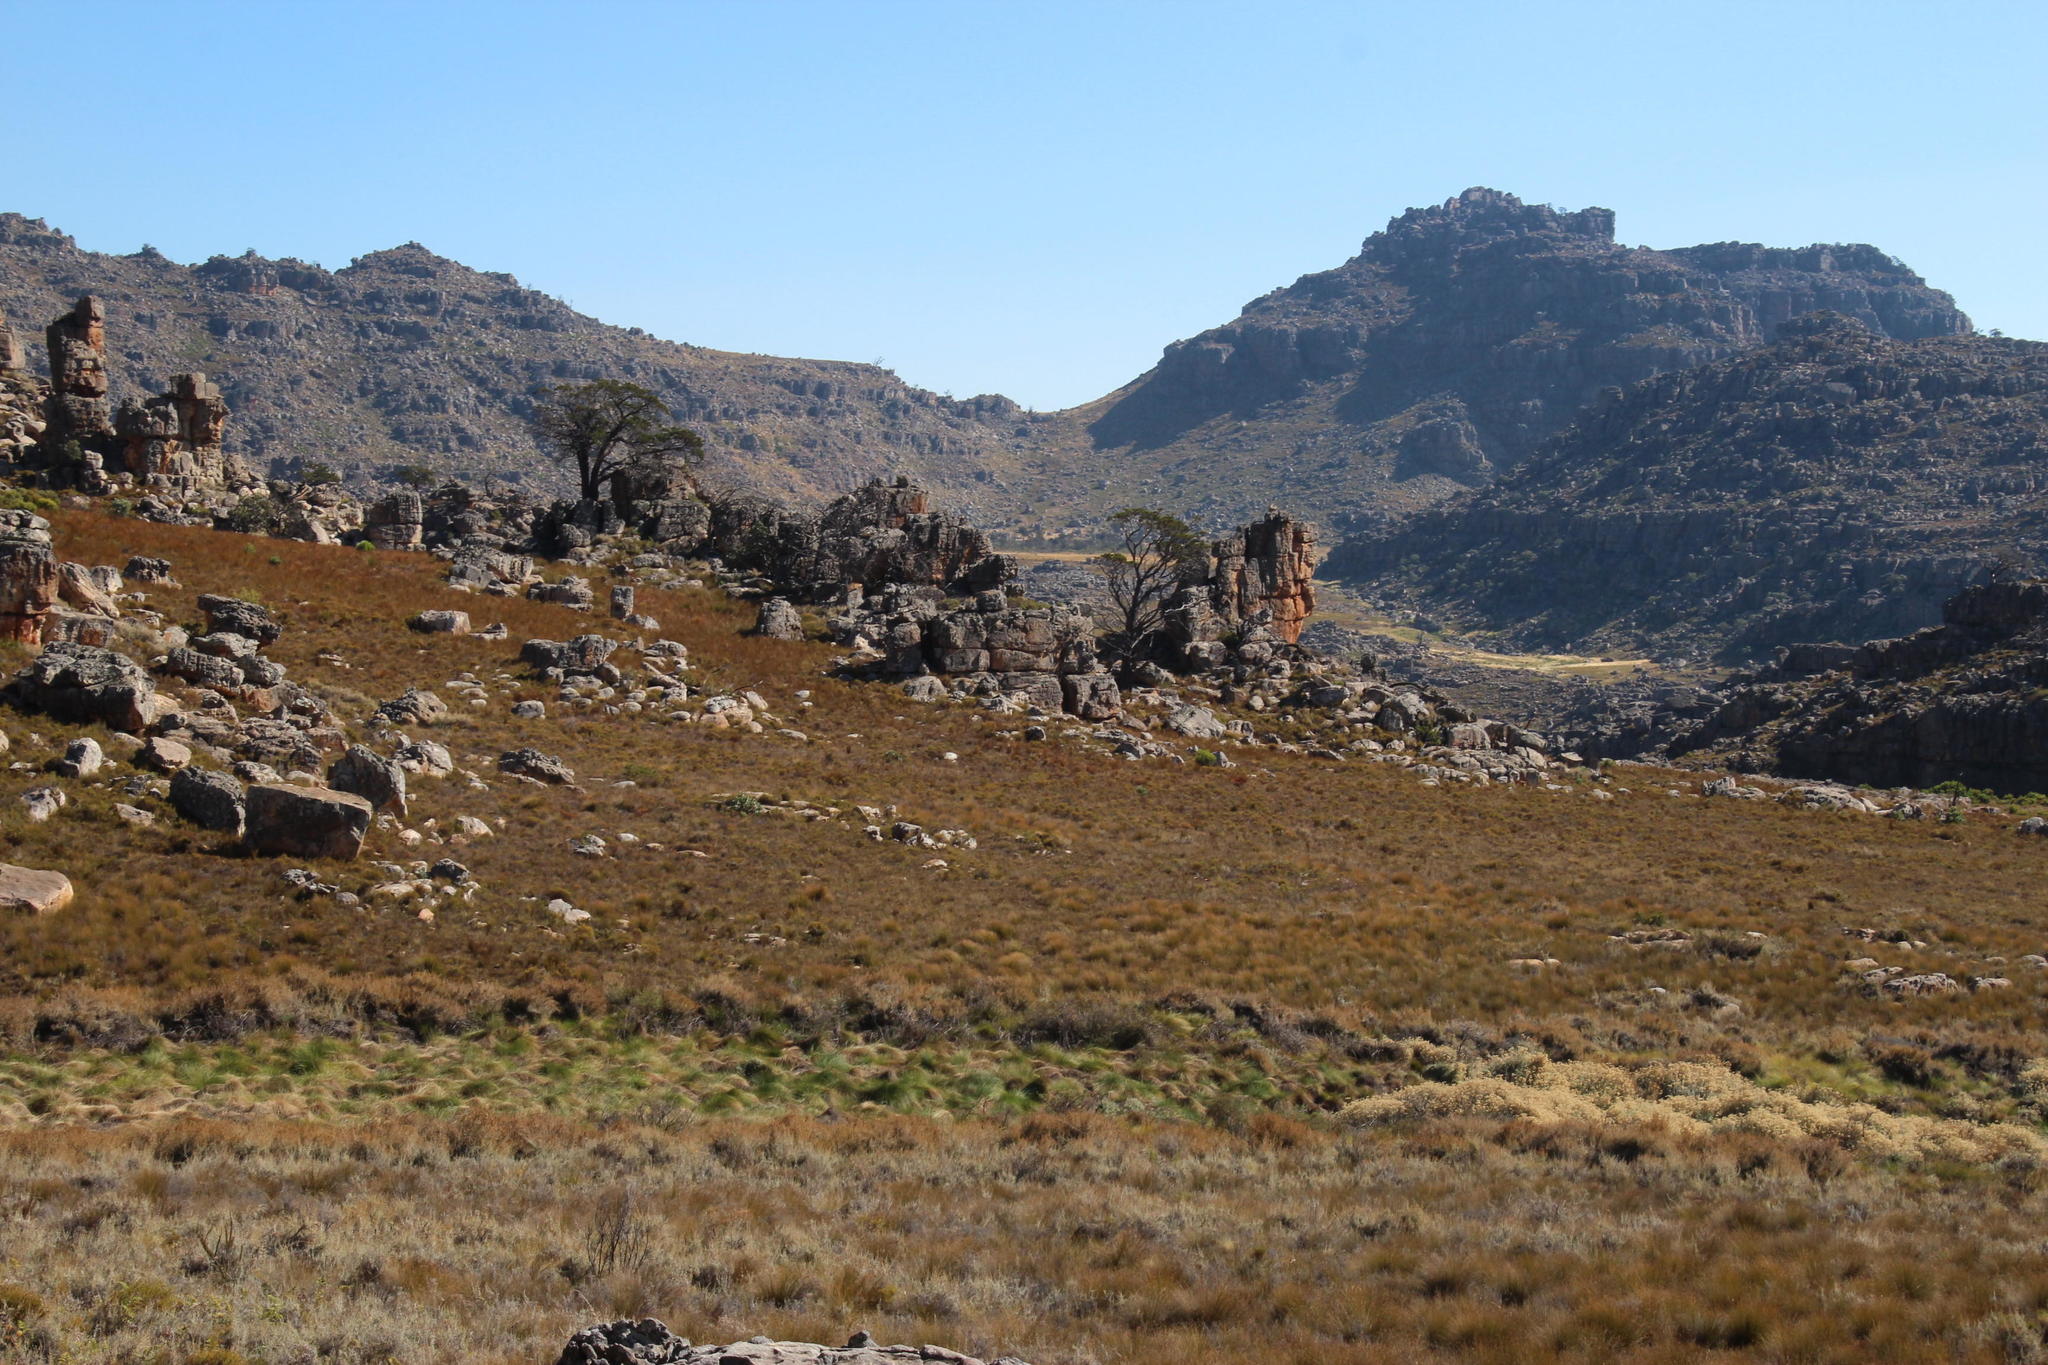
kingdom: Plantae
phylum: Tracheophyta
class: Pinopsida
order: Pinales
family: Cupressaceae
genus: Widdringtonia
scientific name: Widdringtonia nodiflora
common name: Cape cypress
